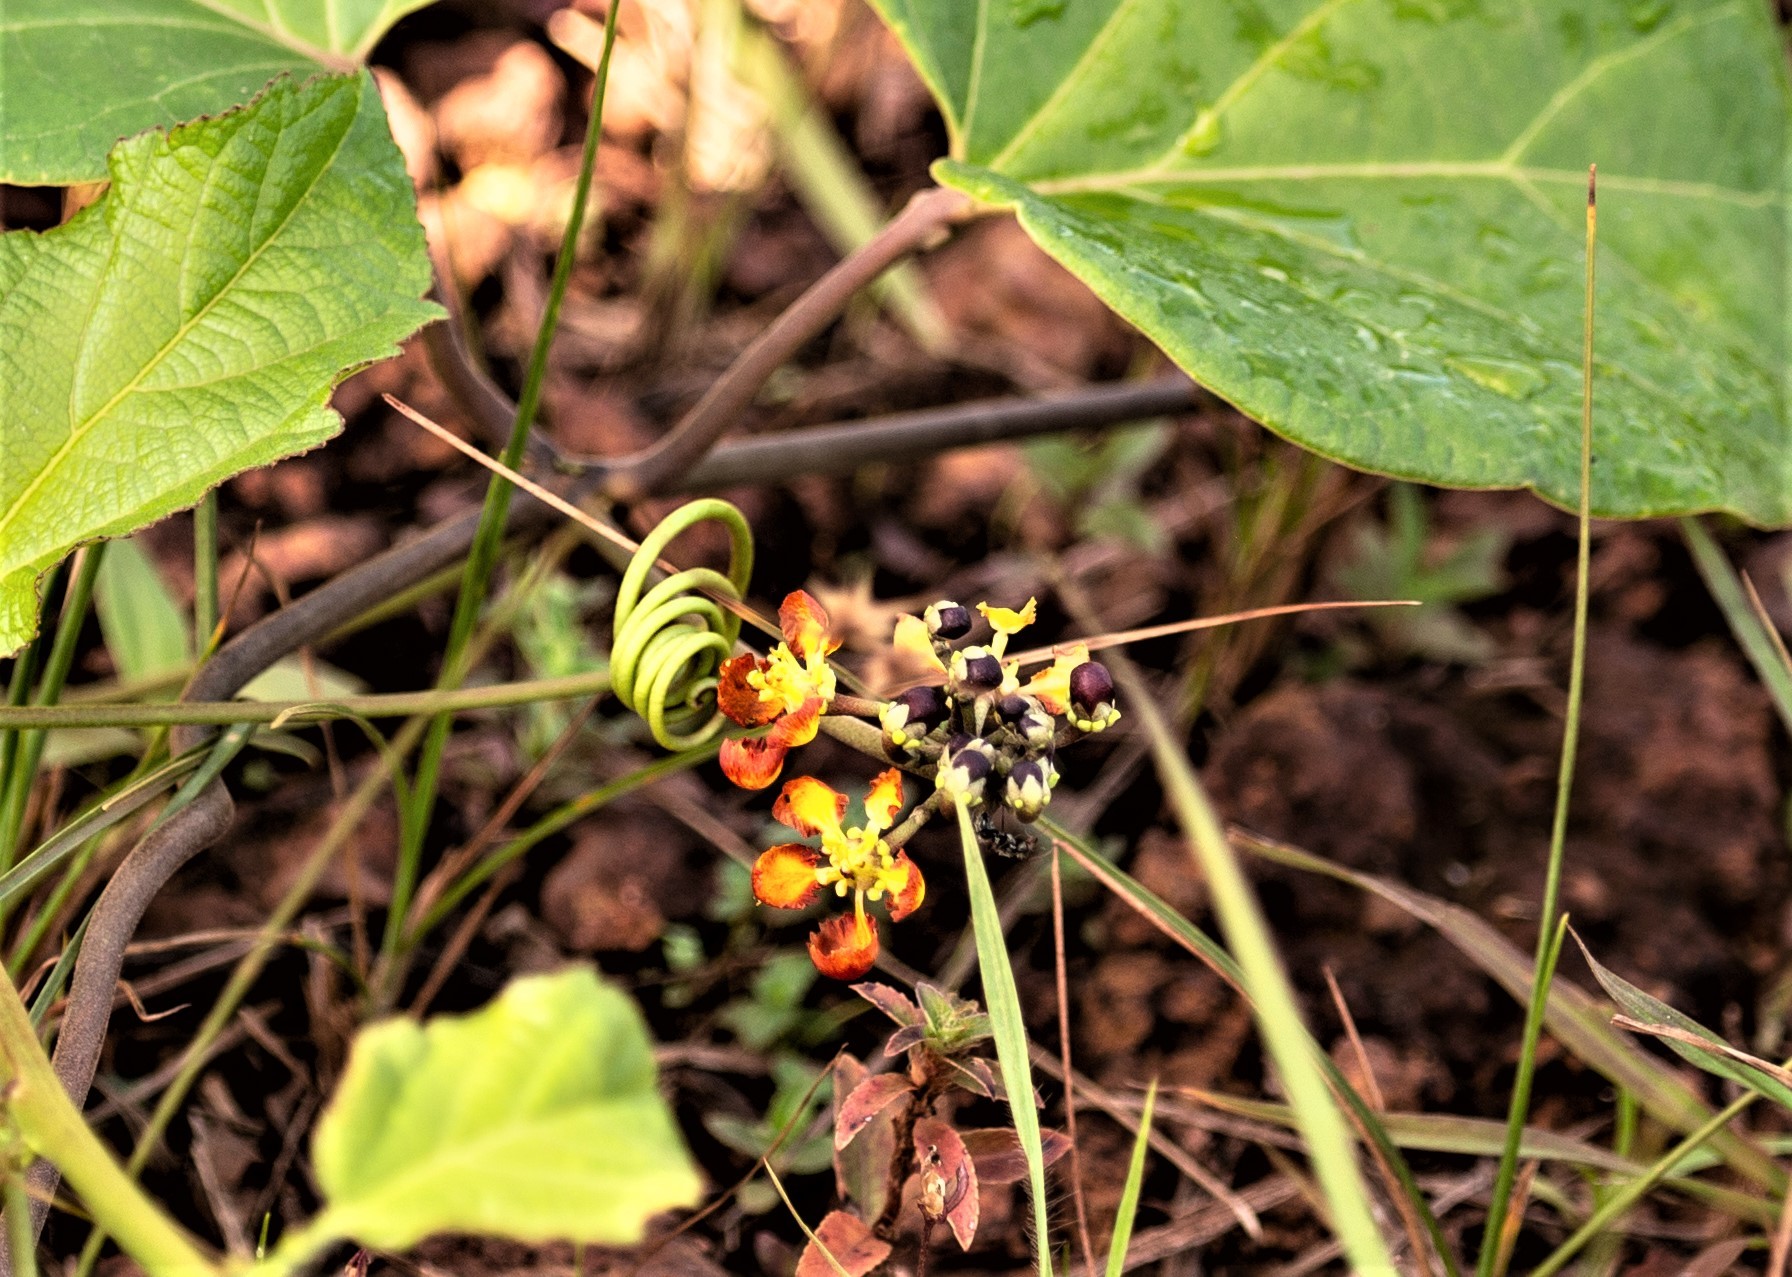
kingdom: Plantae
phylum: Tracheophyta
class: Magnoliopsida
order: Malpighiales
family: Malpighiaceae
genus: Stigmaphyllon
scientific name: Stigmaphyllon sinuatum
